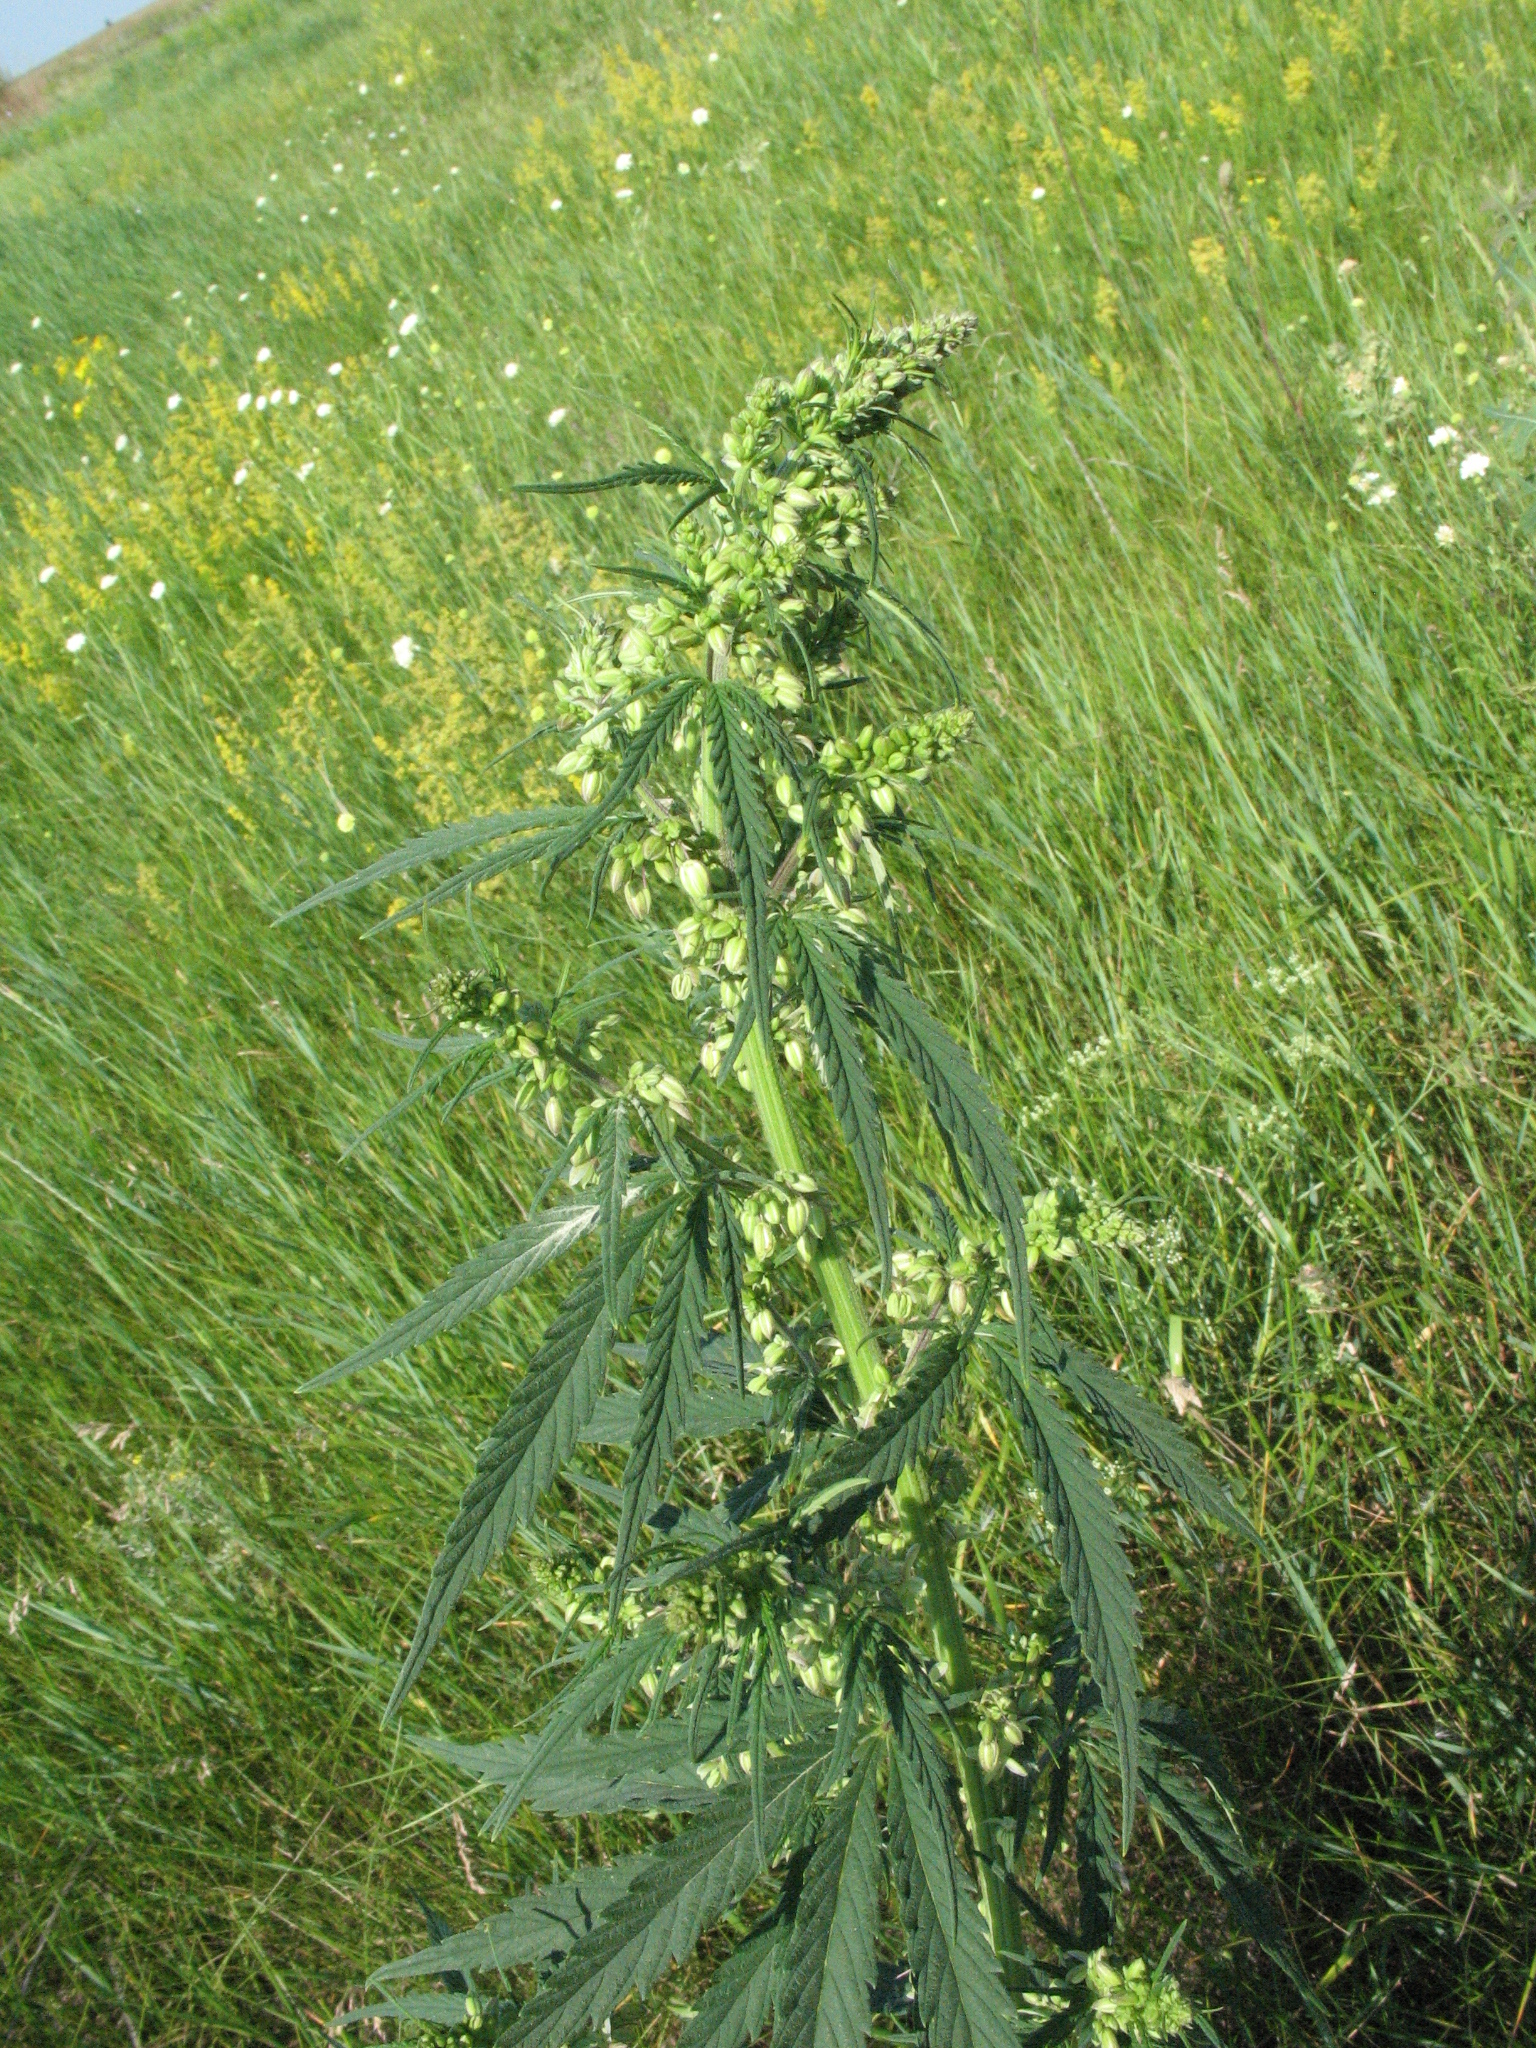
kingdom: Plantae
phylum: Tracheophyta
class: Magnoliopsida
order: Rosales
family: Cannabaceae
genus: Cannabis
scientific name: Cannabis sativa
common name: Hemp
